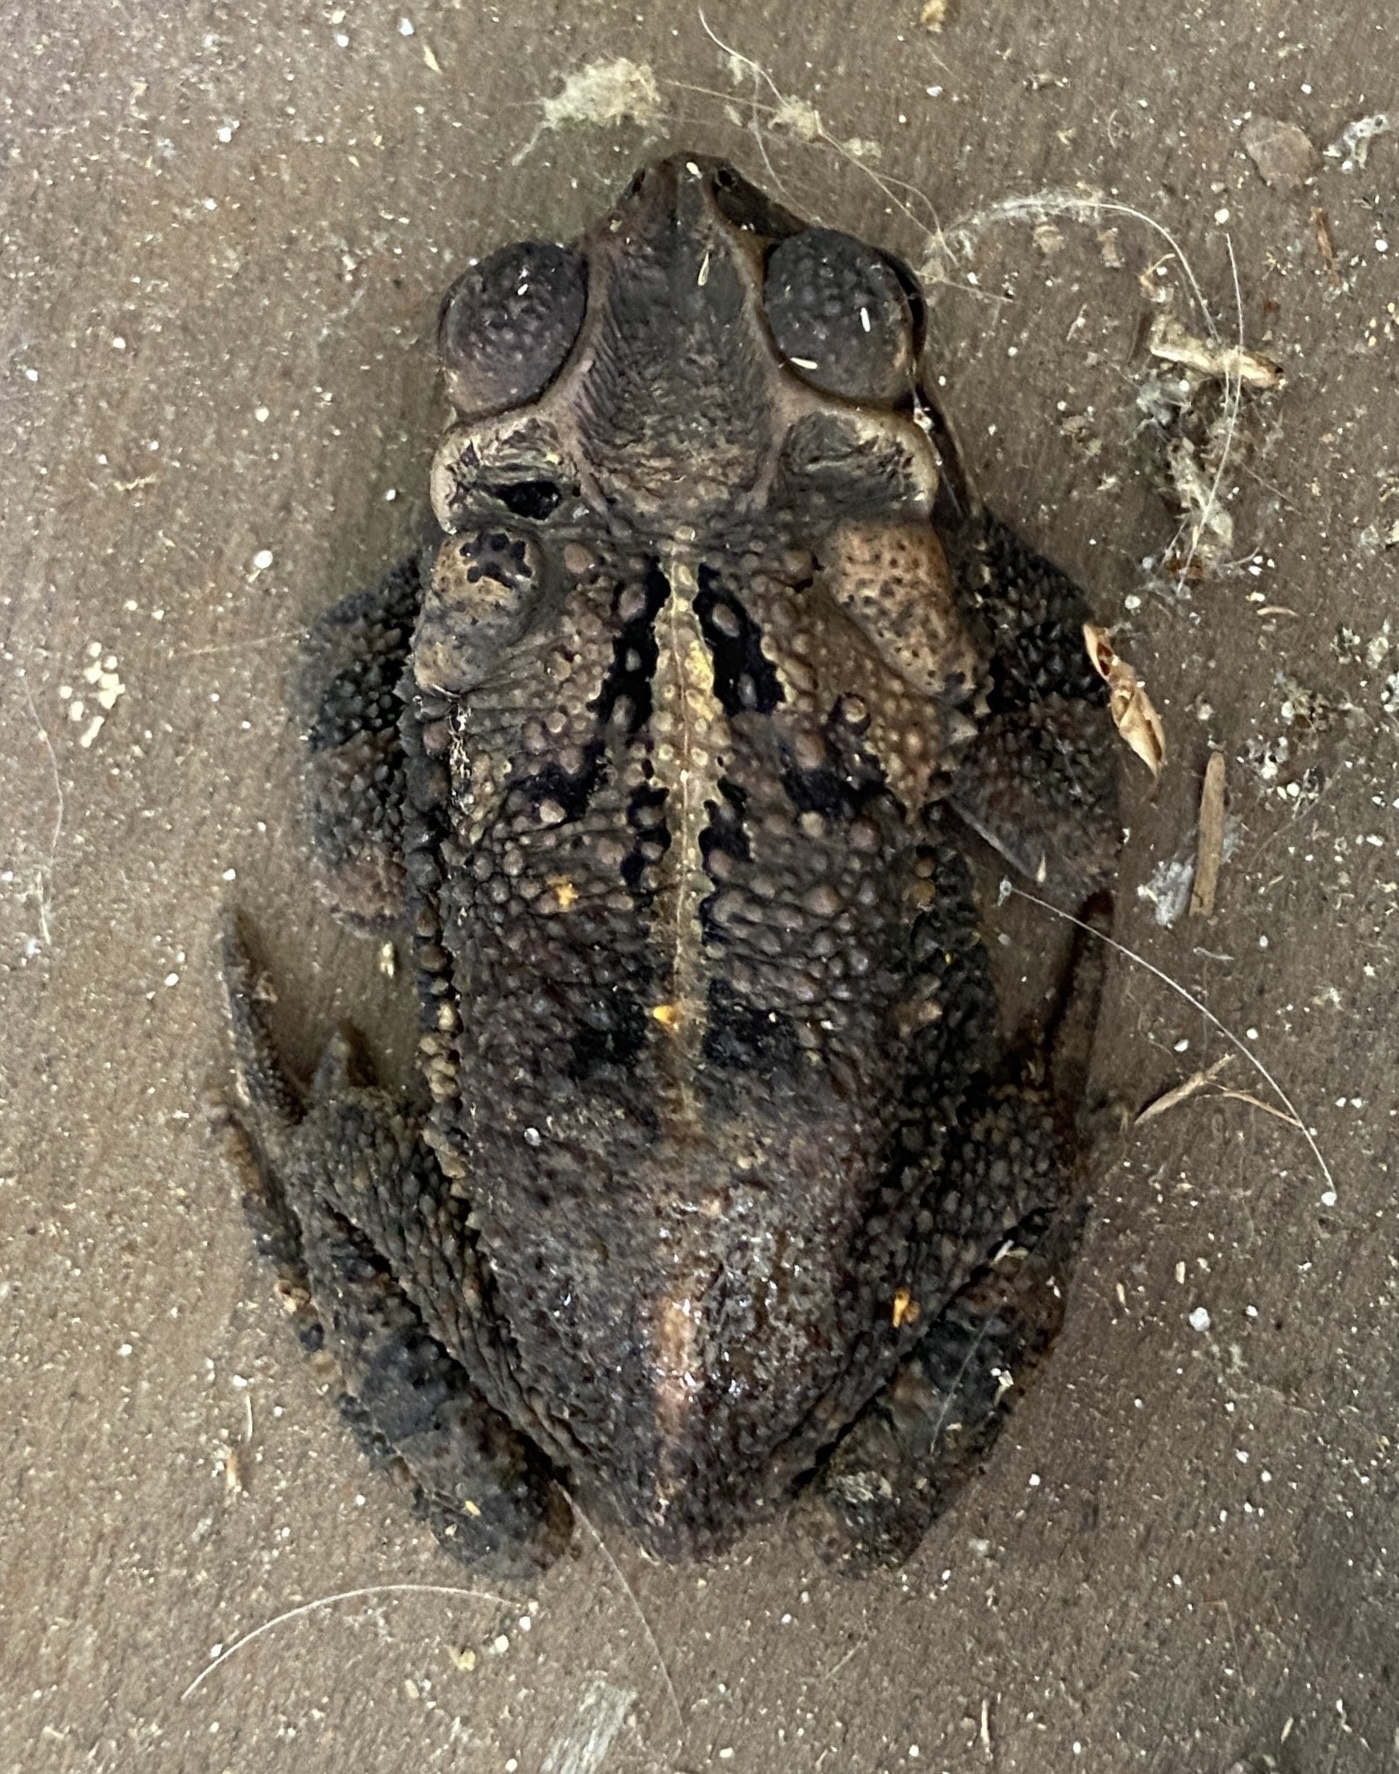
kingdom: Animalia
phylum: Chordata
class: Amphibia
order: Anura
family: Bufonidae
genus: Incilius
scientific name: Incilius nebulifer
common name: Gulf coast toad
